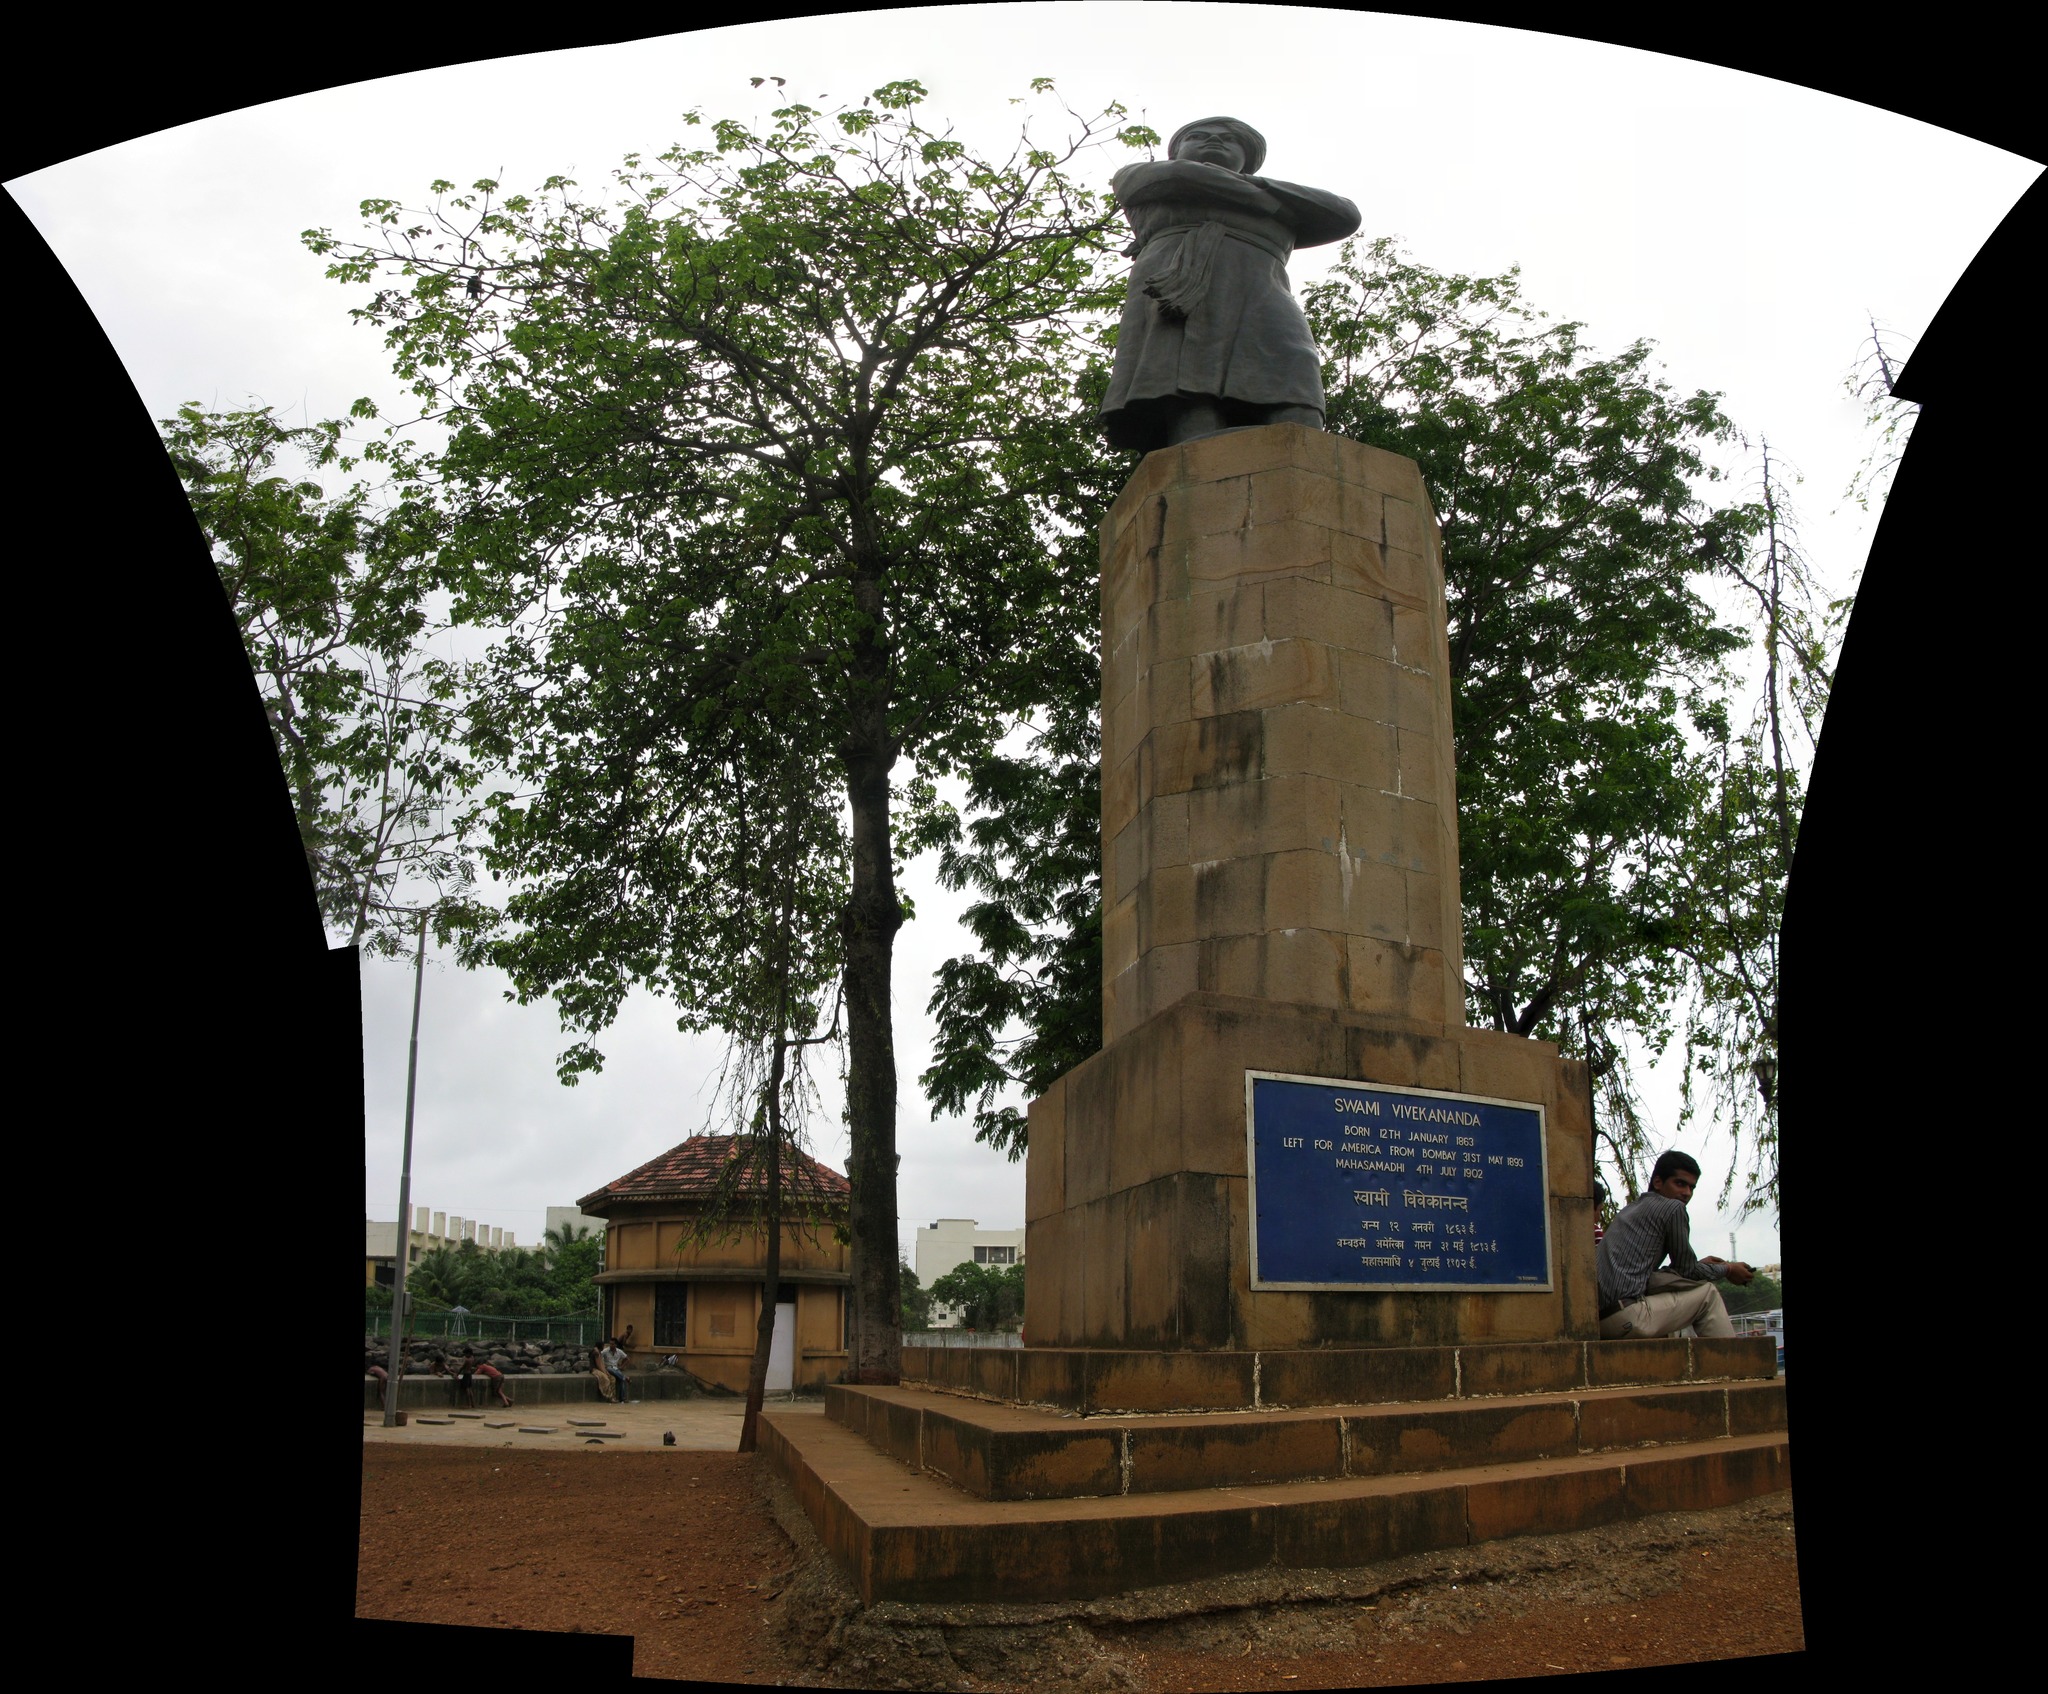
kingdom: Plantae
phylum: Tracheophyta
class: Magnoliopsida
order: Malvales
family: Malvaceae
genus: Bombax
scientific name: Bombax ceiba
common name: Northern-cottonwood
